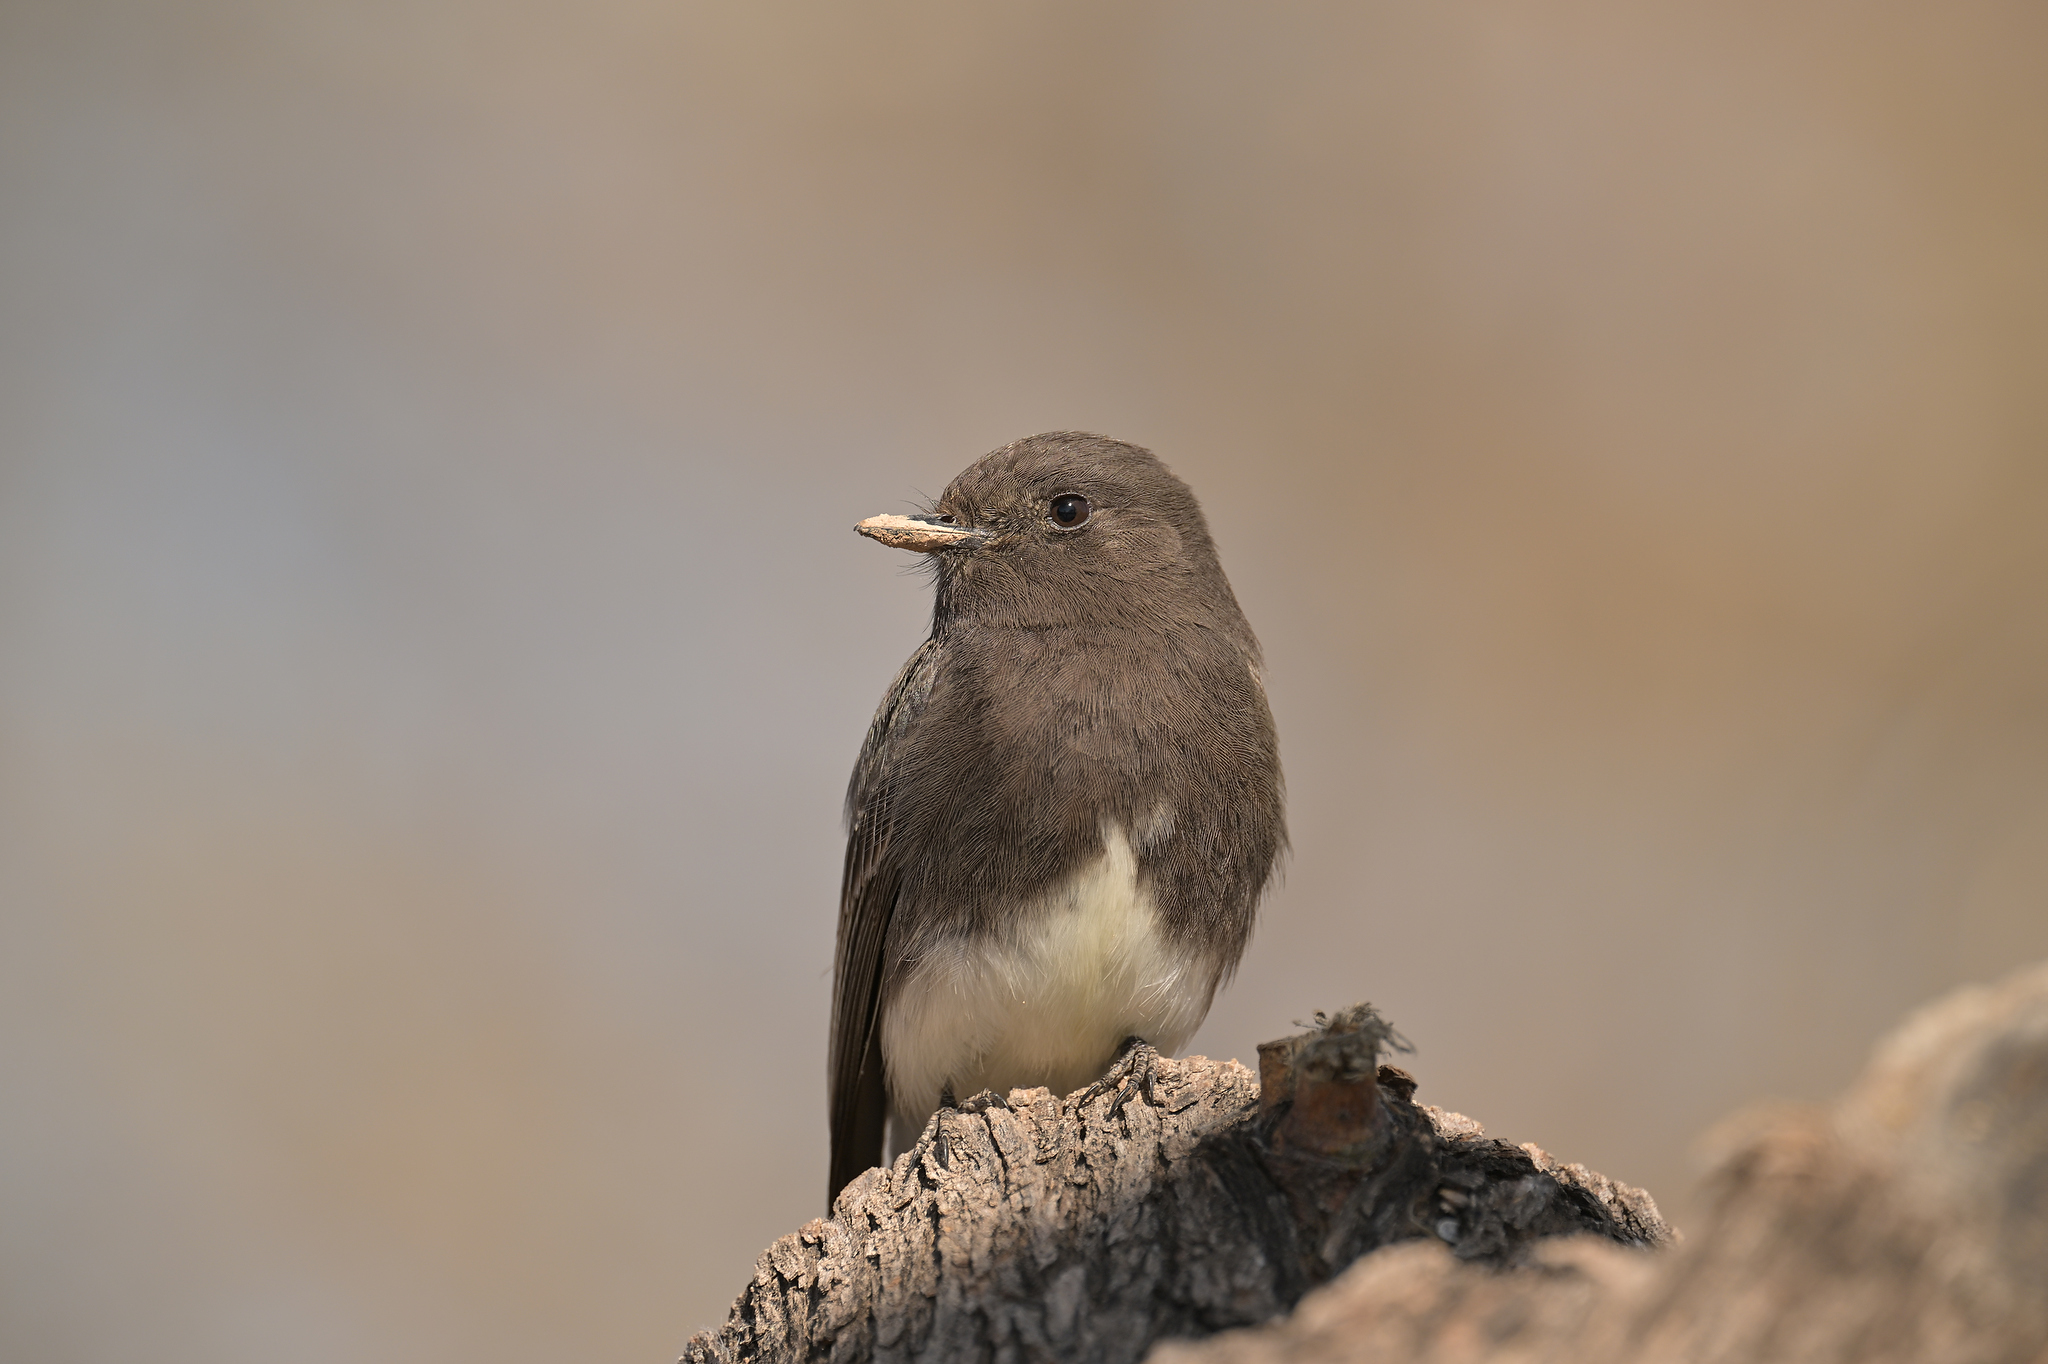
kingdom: Animalia
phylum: Chordata
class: Aves
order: Passeriformes
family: Tyrannidae
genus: Sayornis
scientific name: Sayornis nigricans
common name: Black phoebe
